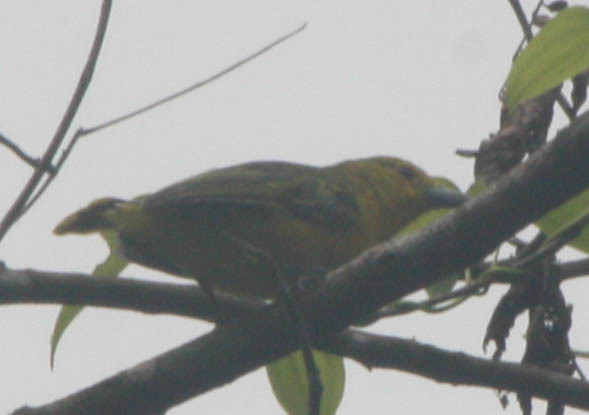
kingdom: Animalia
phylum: Chordata
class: Aves
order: Passeriformes
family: Aegithinidae
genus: Aegithina
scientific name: Aegithina lafresnayei
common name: Great iora
